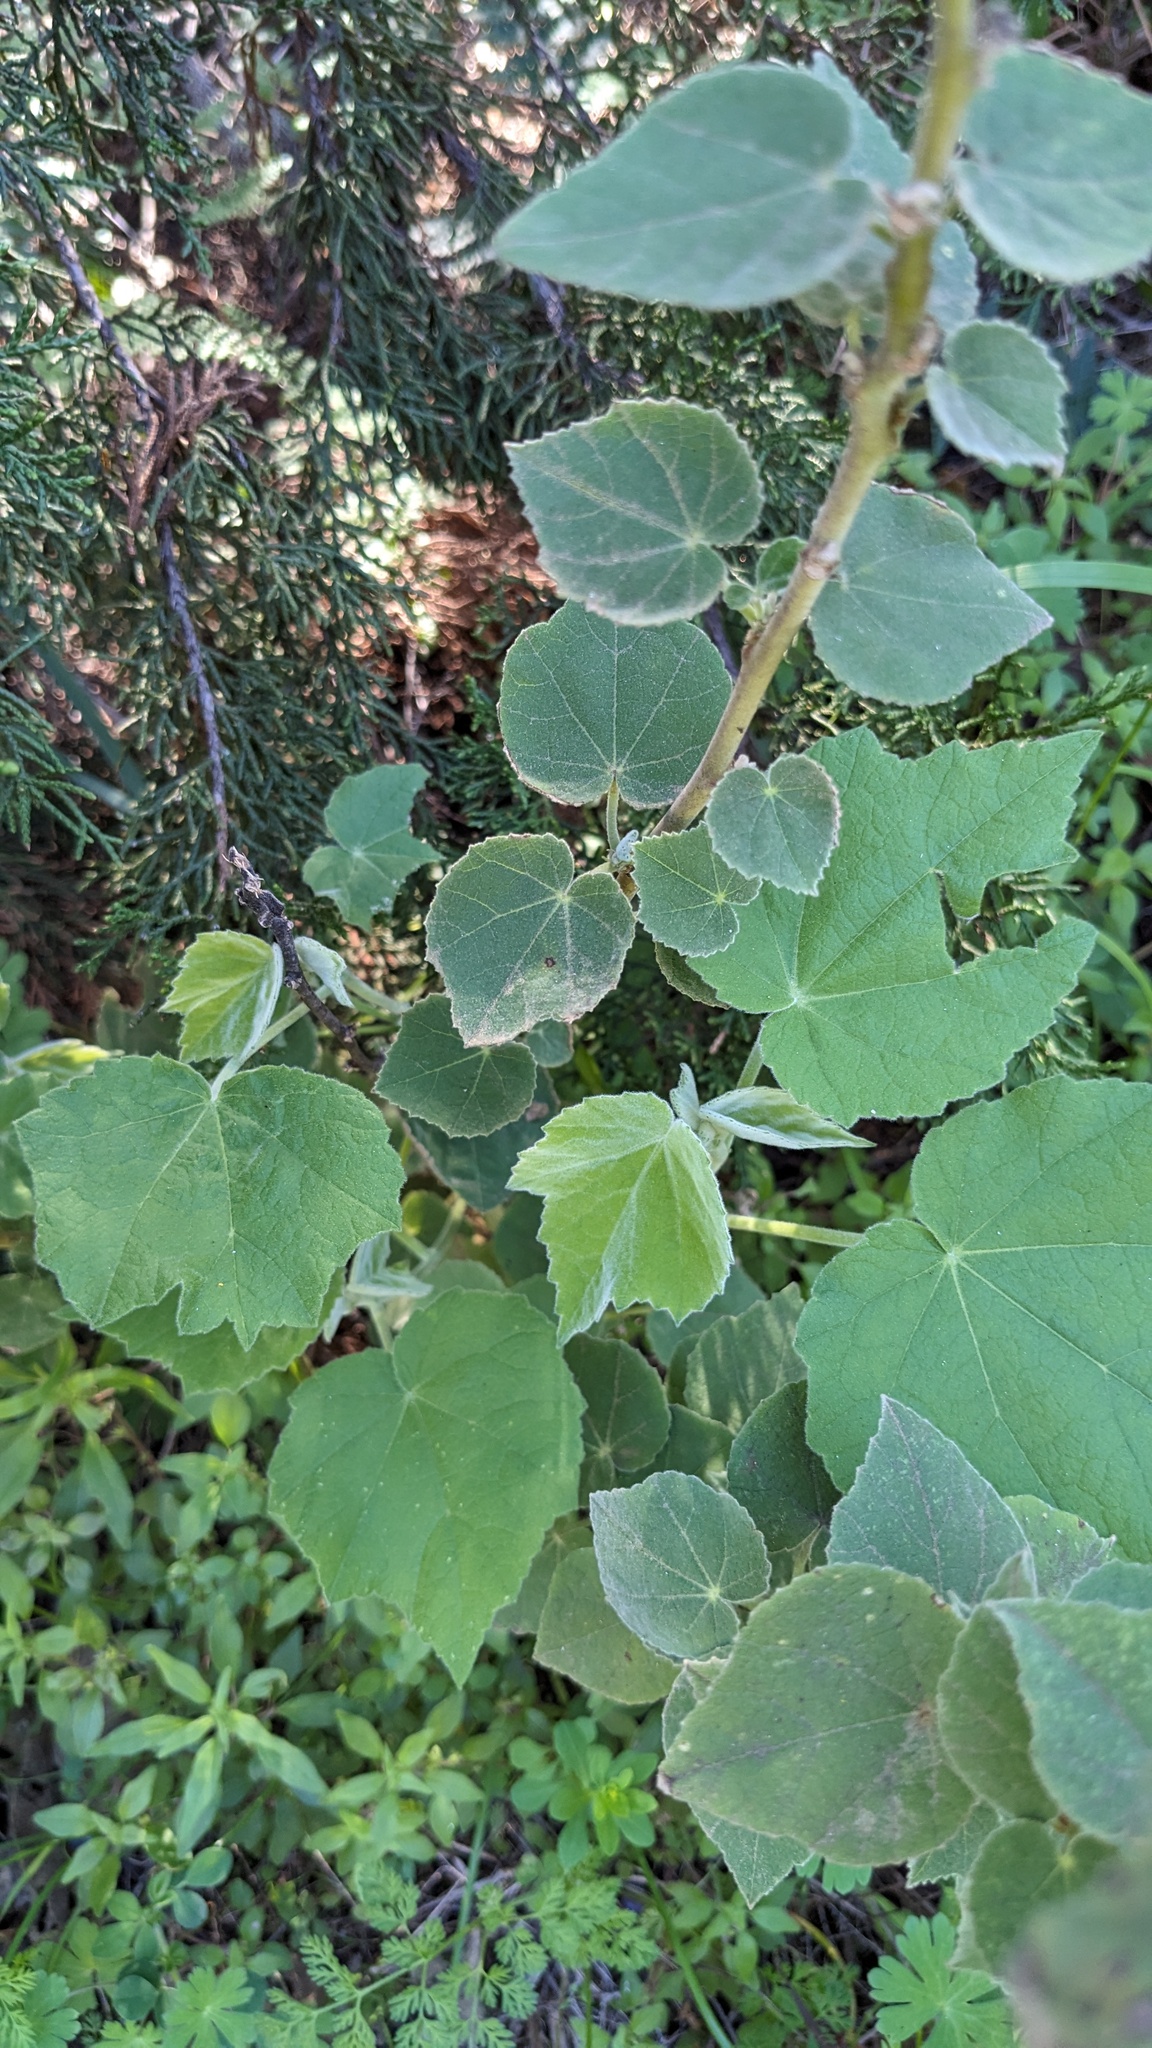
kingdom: Plantae
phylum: Tracheophyta
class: Magnoliopsida
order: Malvales
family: Malvaceae
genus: Allowissadula
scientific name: Allowissadula holosericea
